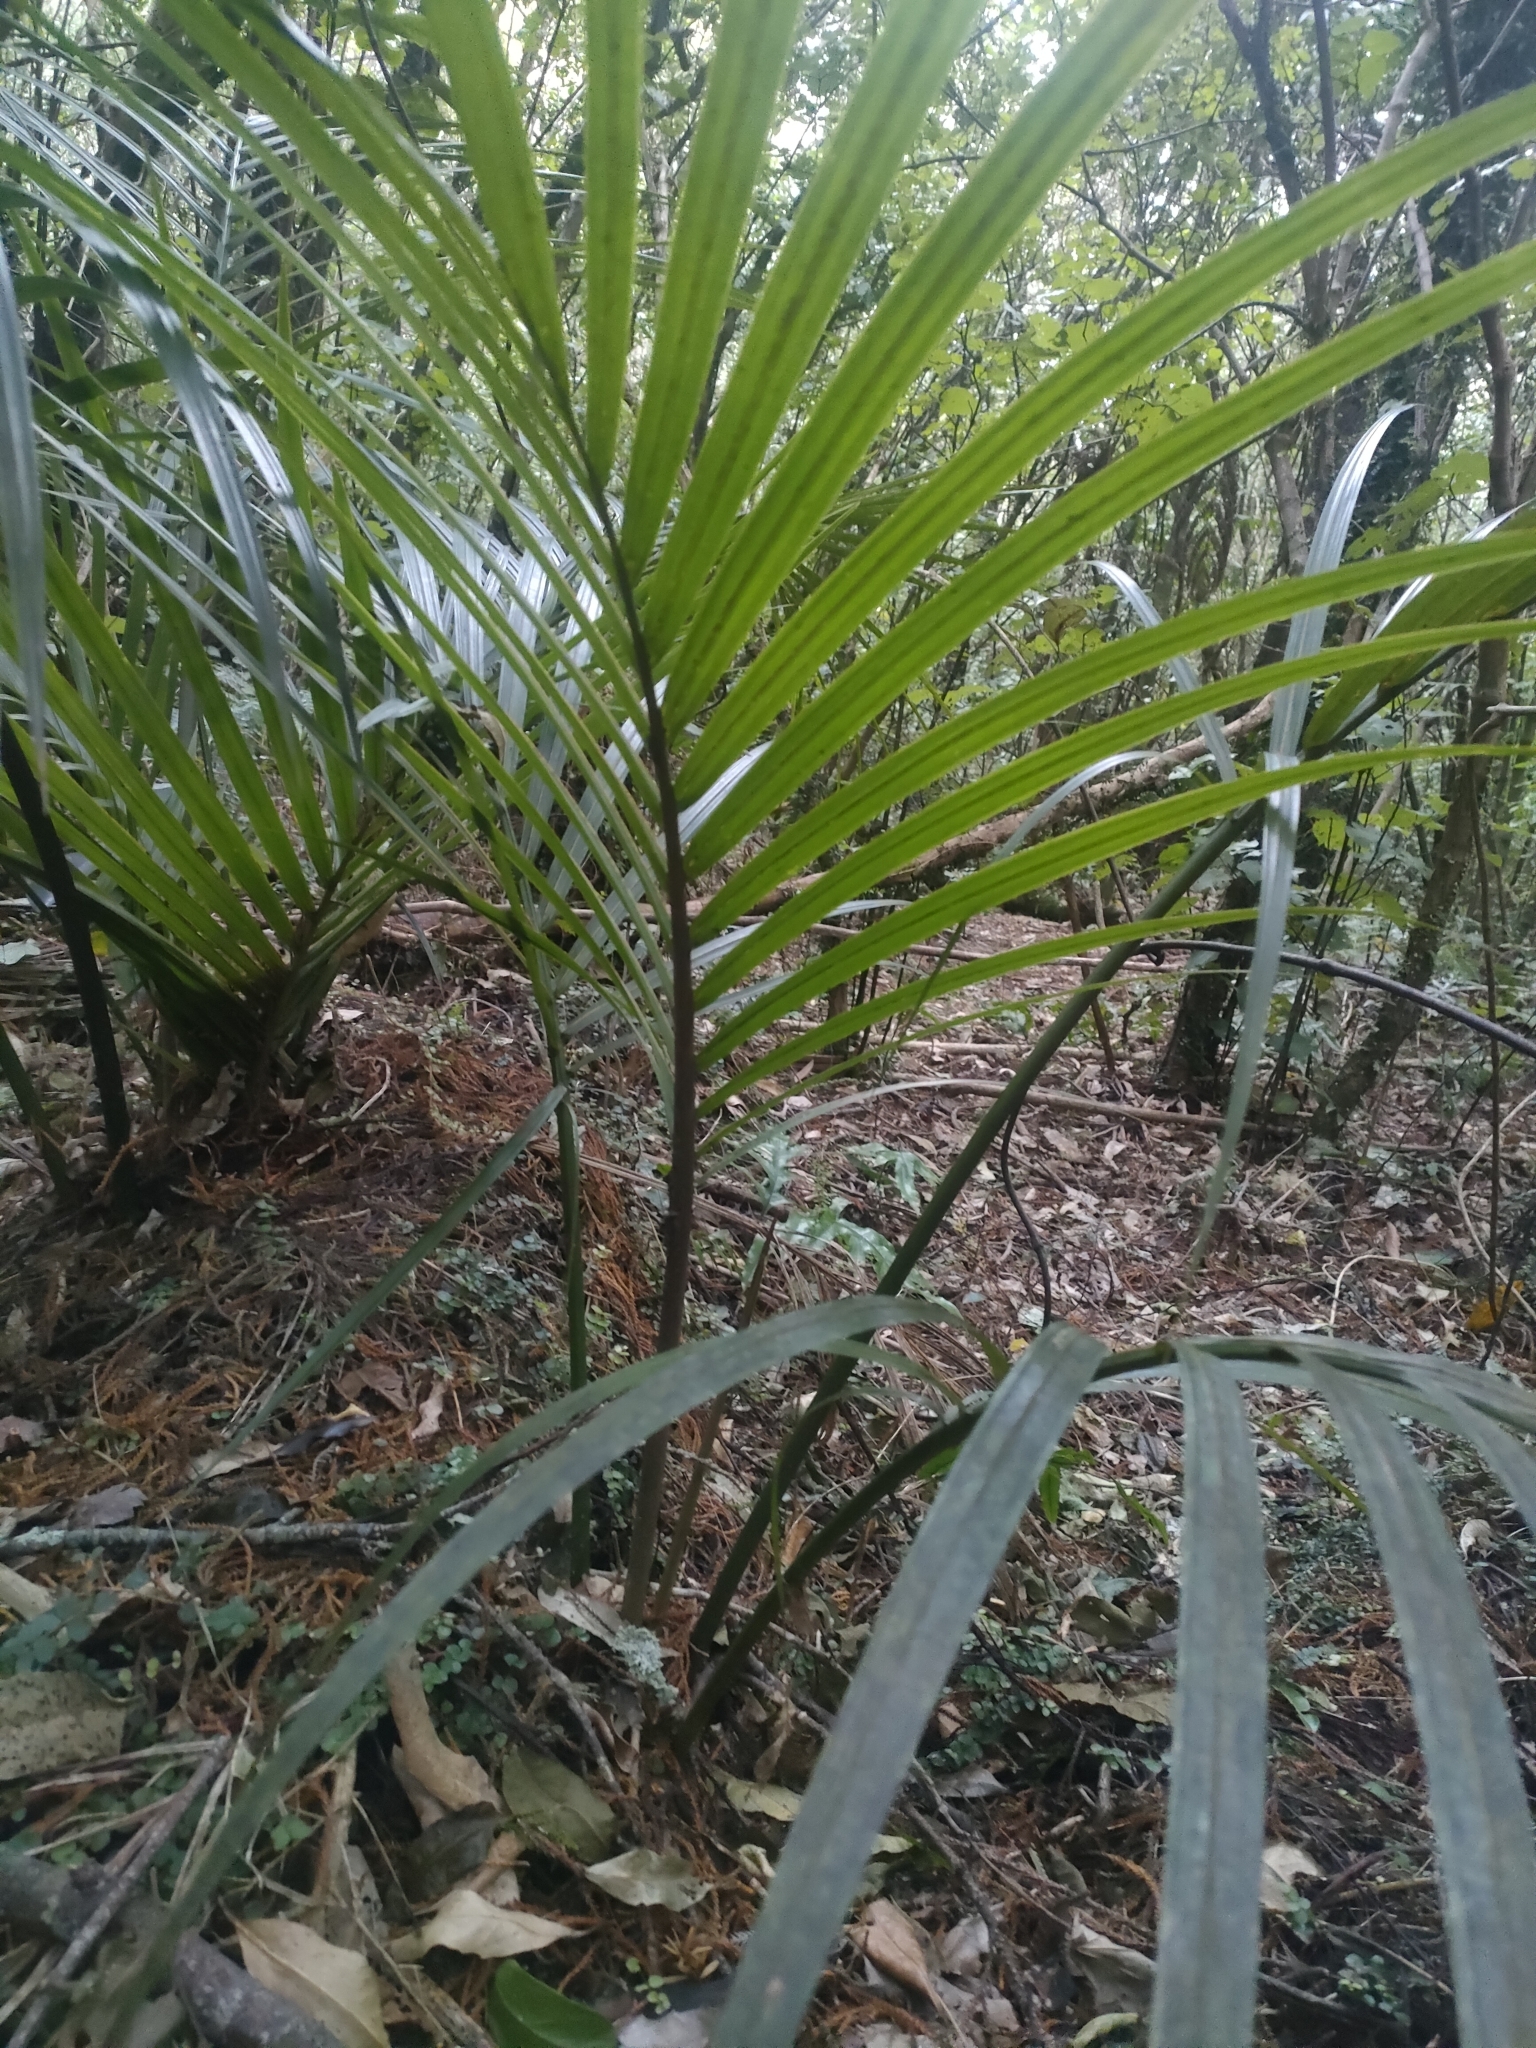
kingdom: Plantae
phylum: Tracheophyta
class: Liliopsida
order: Arecales
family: Arecaceae
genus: Rhopalostylis
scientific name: Rhopalostylis sapida
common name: Feather-duster palm
